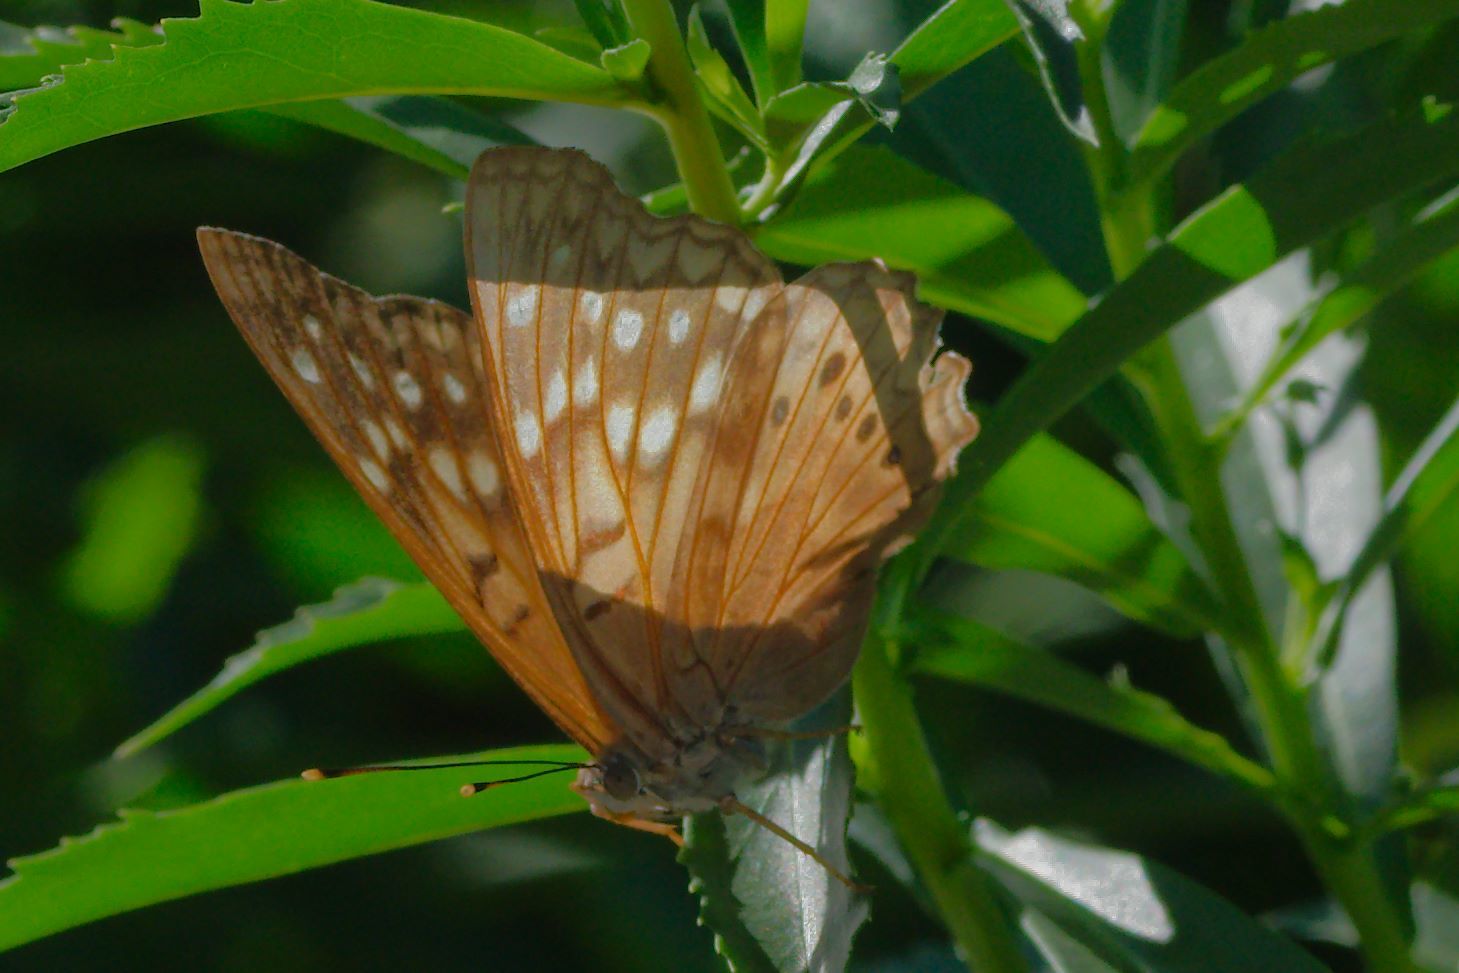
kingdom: Animalia
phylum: Arthropoda
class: Insecta
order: Lepidoptera
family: Nymphalidae
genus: Asterocampa
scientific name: Asterocampa clyton
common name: Tawny emperor
